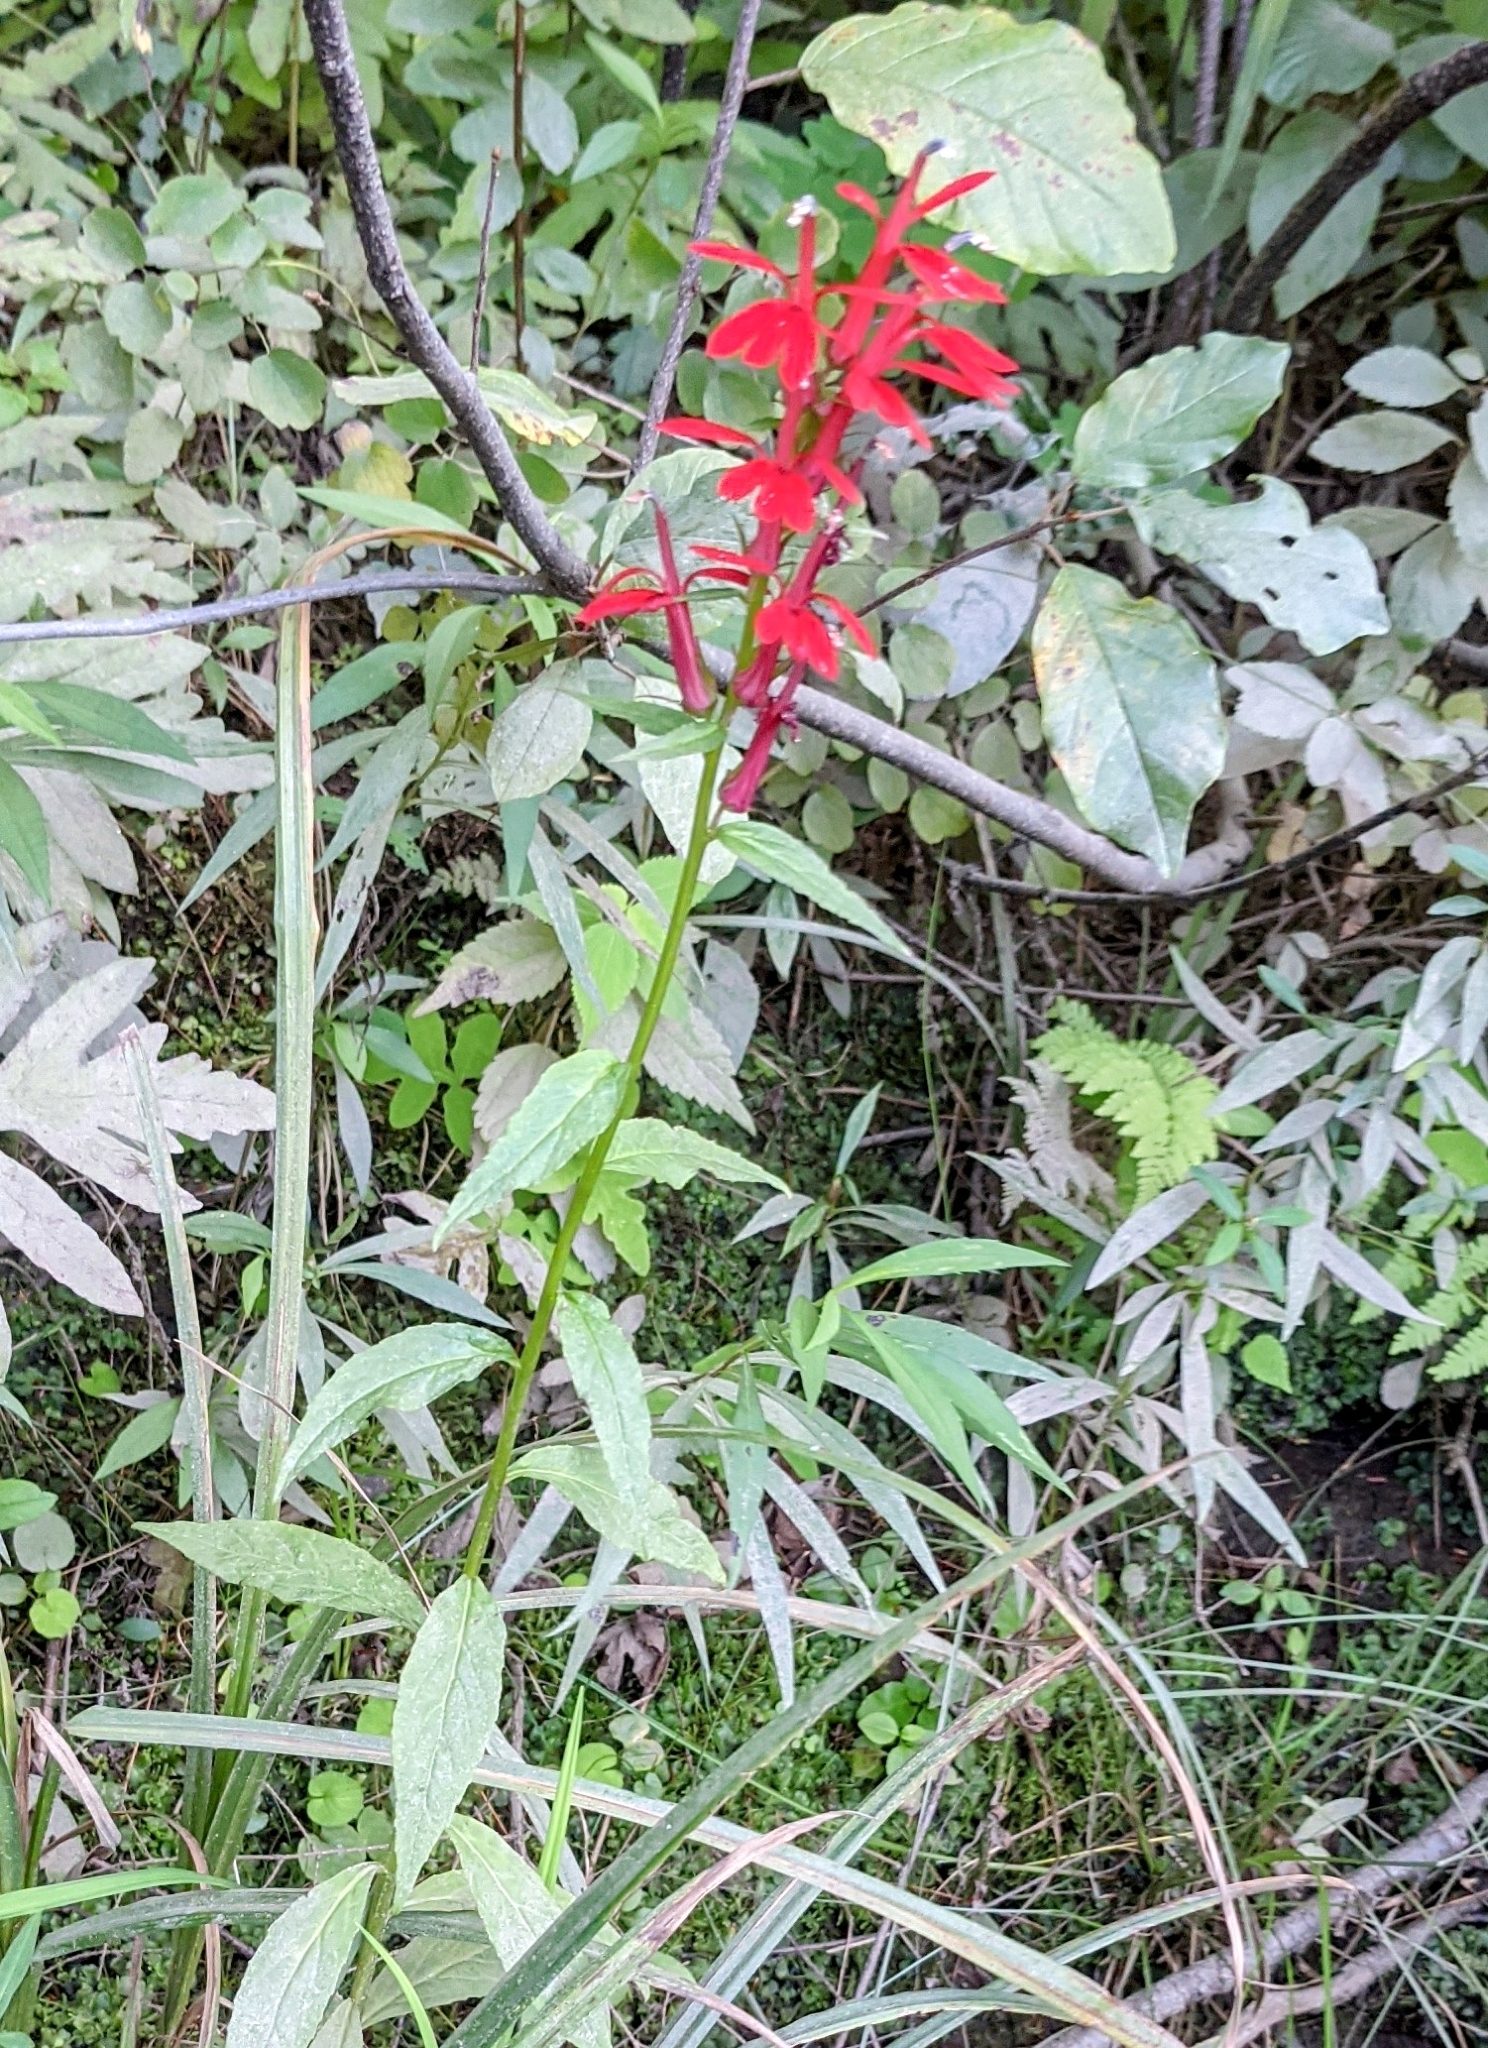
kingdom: Plantae
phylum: Tracheophyta
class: Magnoliopsida
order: Asterales
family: Campanulaceae
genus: Lobelia
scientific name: Lobelia cardinalis
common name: Cardinal flower
